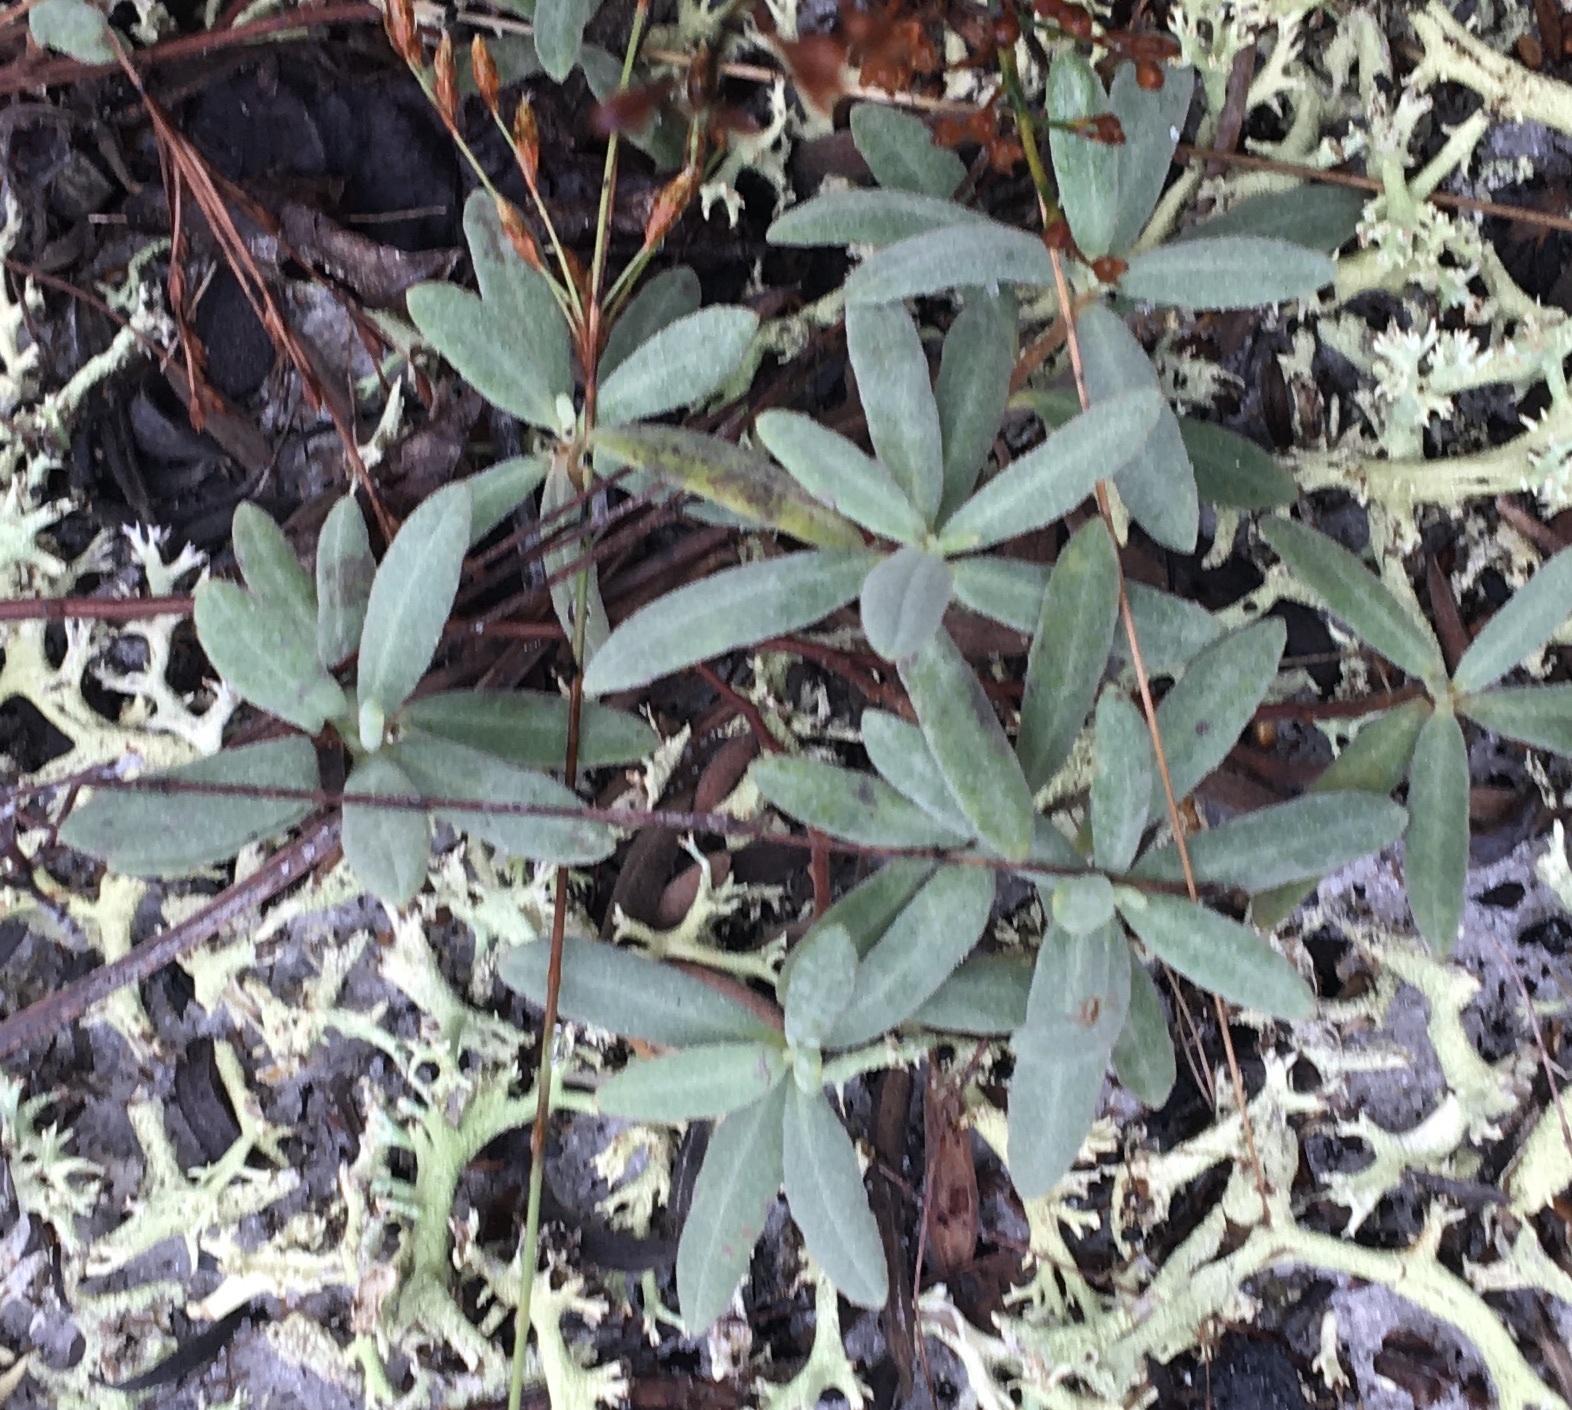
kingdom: Plantae
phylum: Tracheophyta
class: Magnoliopsida
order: Malvales
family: Cistaceae
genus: Crocanthemum
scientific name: Crocanthemum arenicola
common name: Gulf coast frostweed
